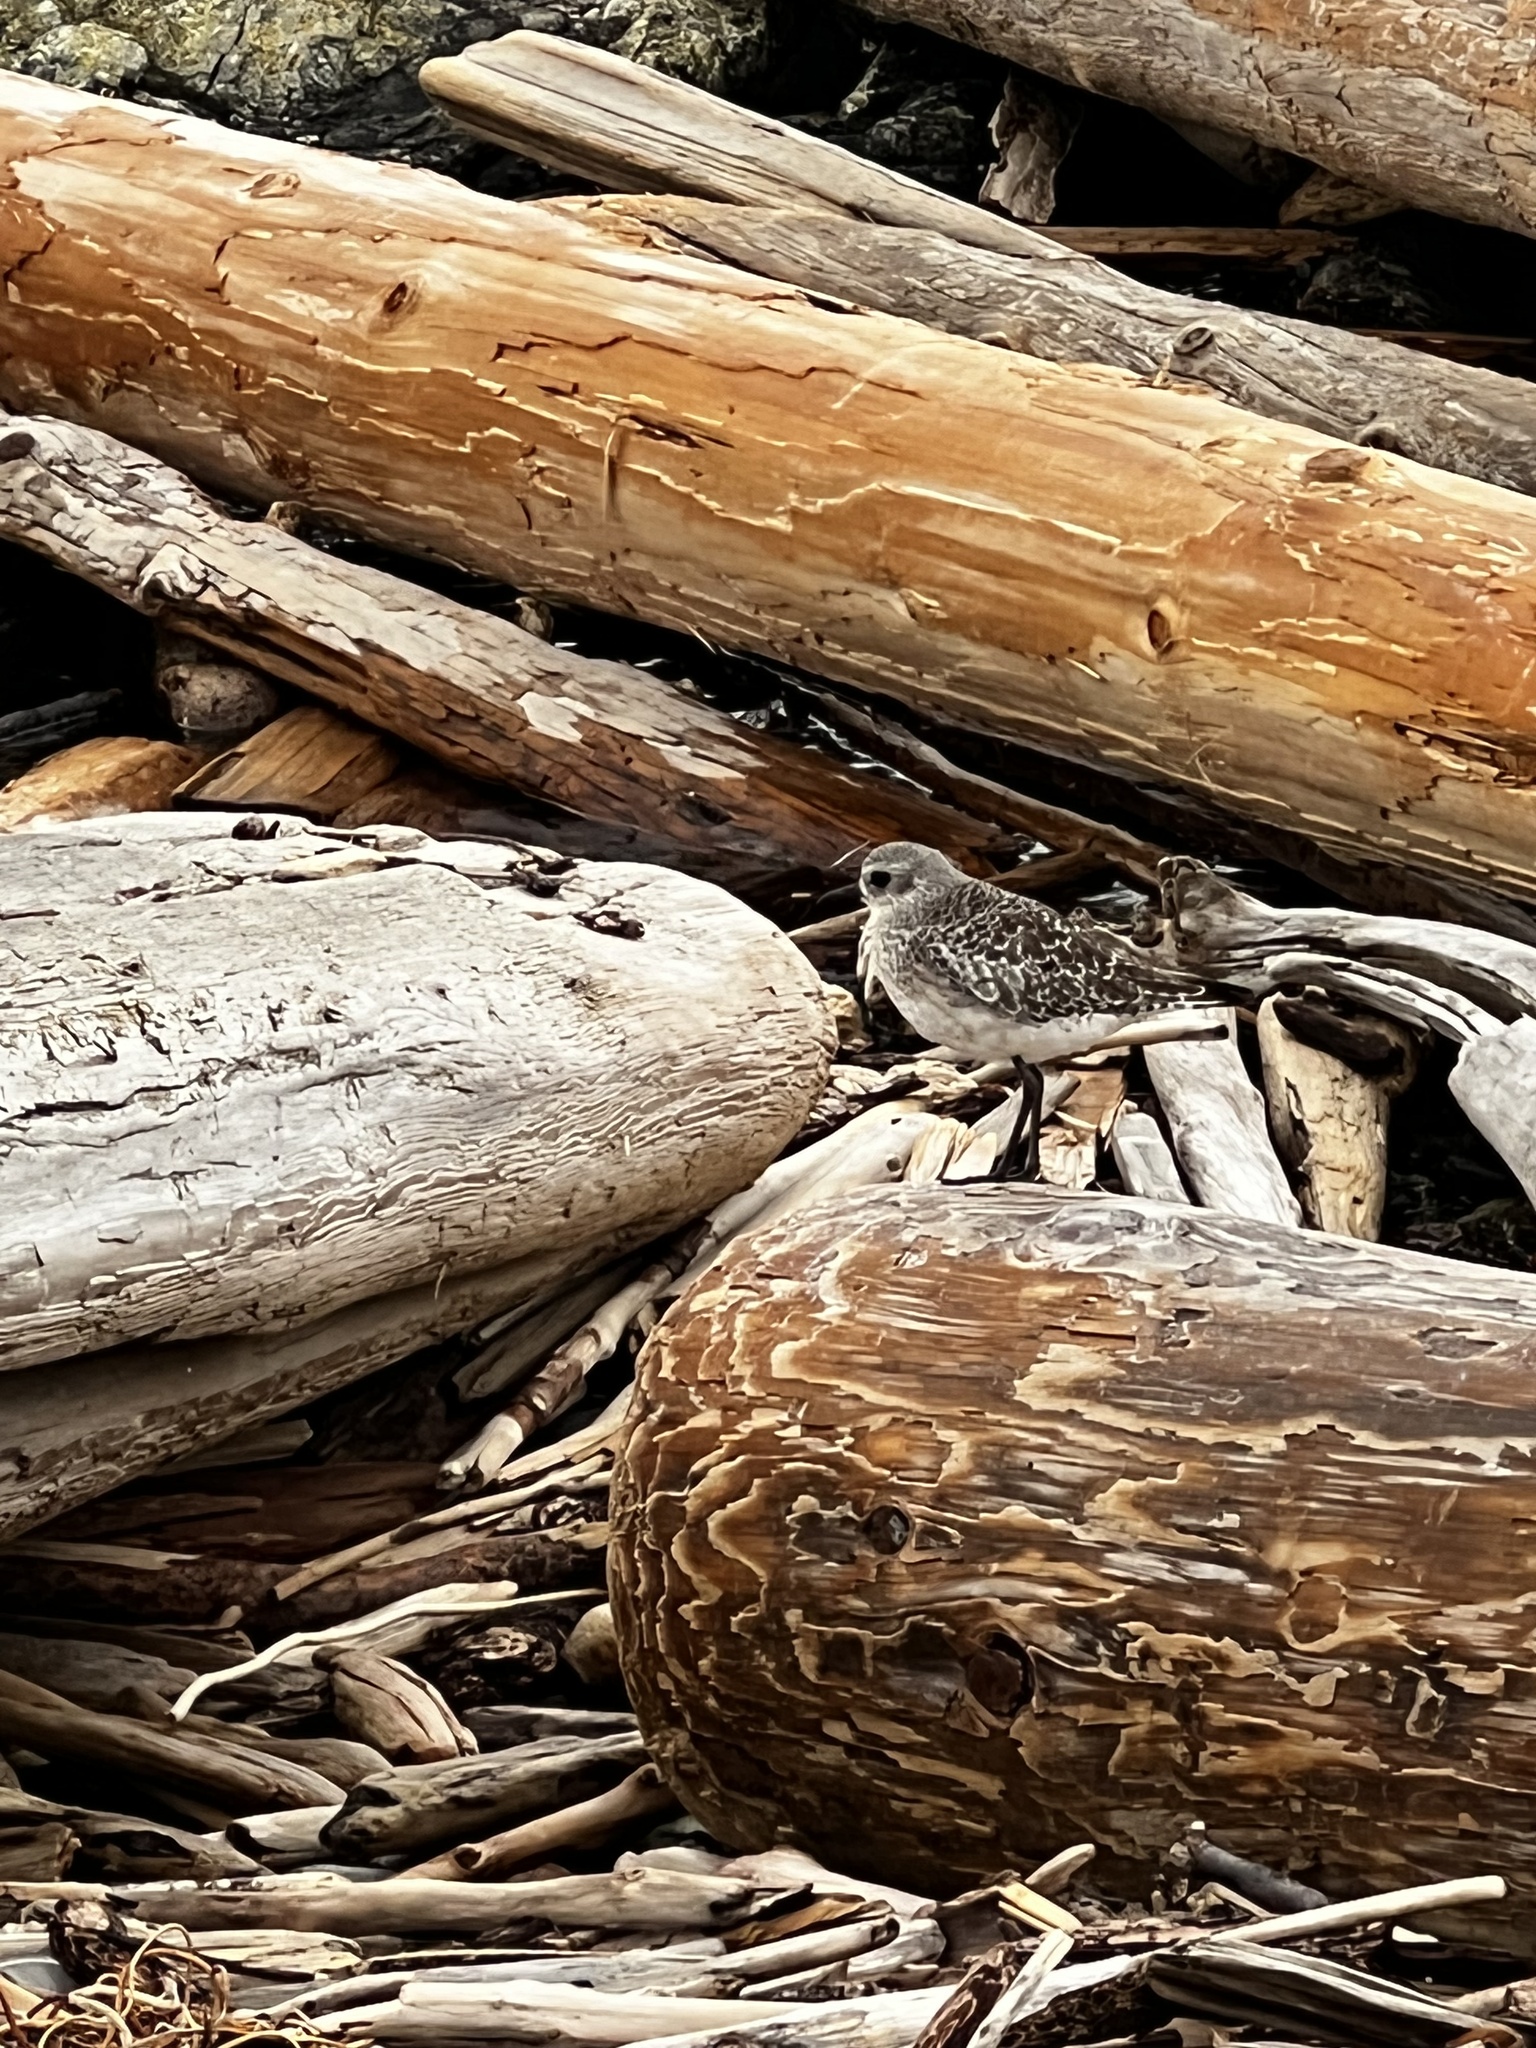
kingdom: Animalia
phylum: Chordata
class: Aves
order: Charadriiformes
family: Charadriidae
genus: Pluvialis
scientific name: Pluvialis squatarola
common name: Grey plover
